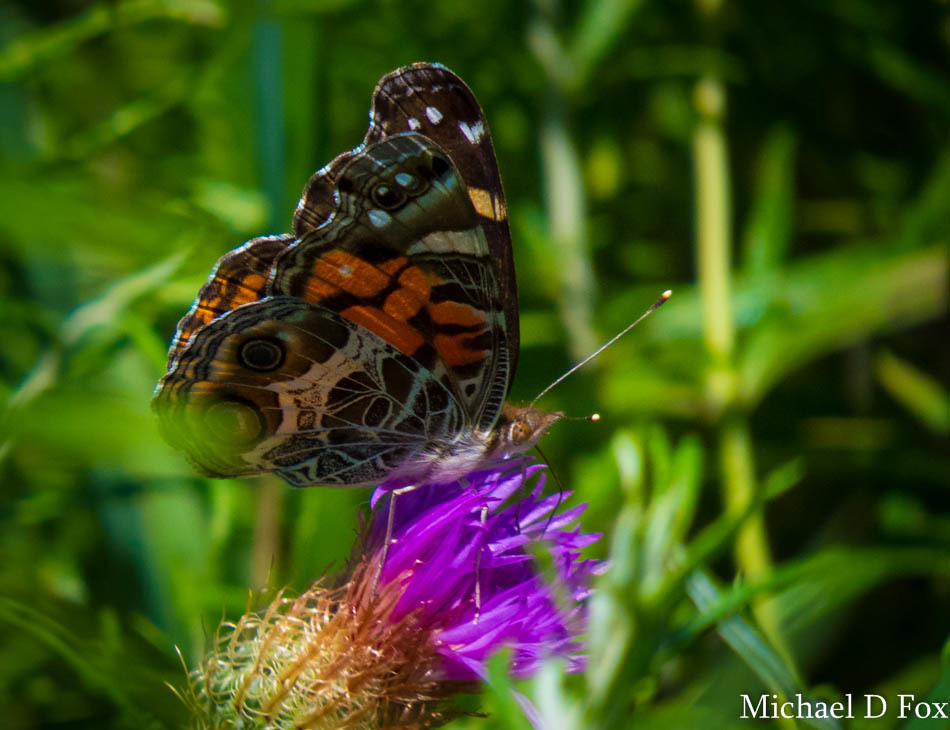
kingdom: Animalia
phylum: Arthropoda
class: Insecta
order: Lepidoptera
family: Nymphalidae
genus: Vanessa
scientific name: Vanessa virginiensis
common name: American lady
